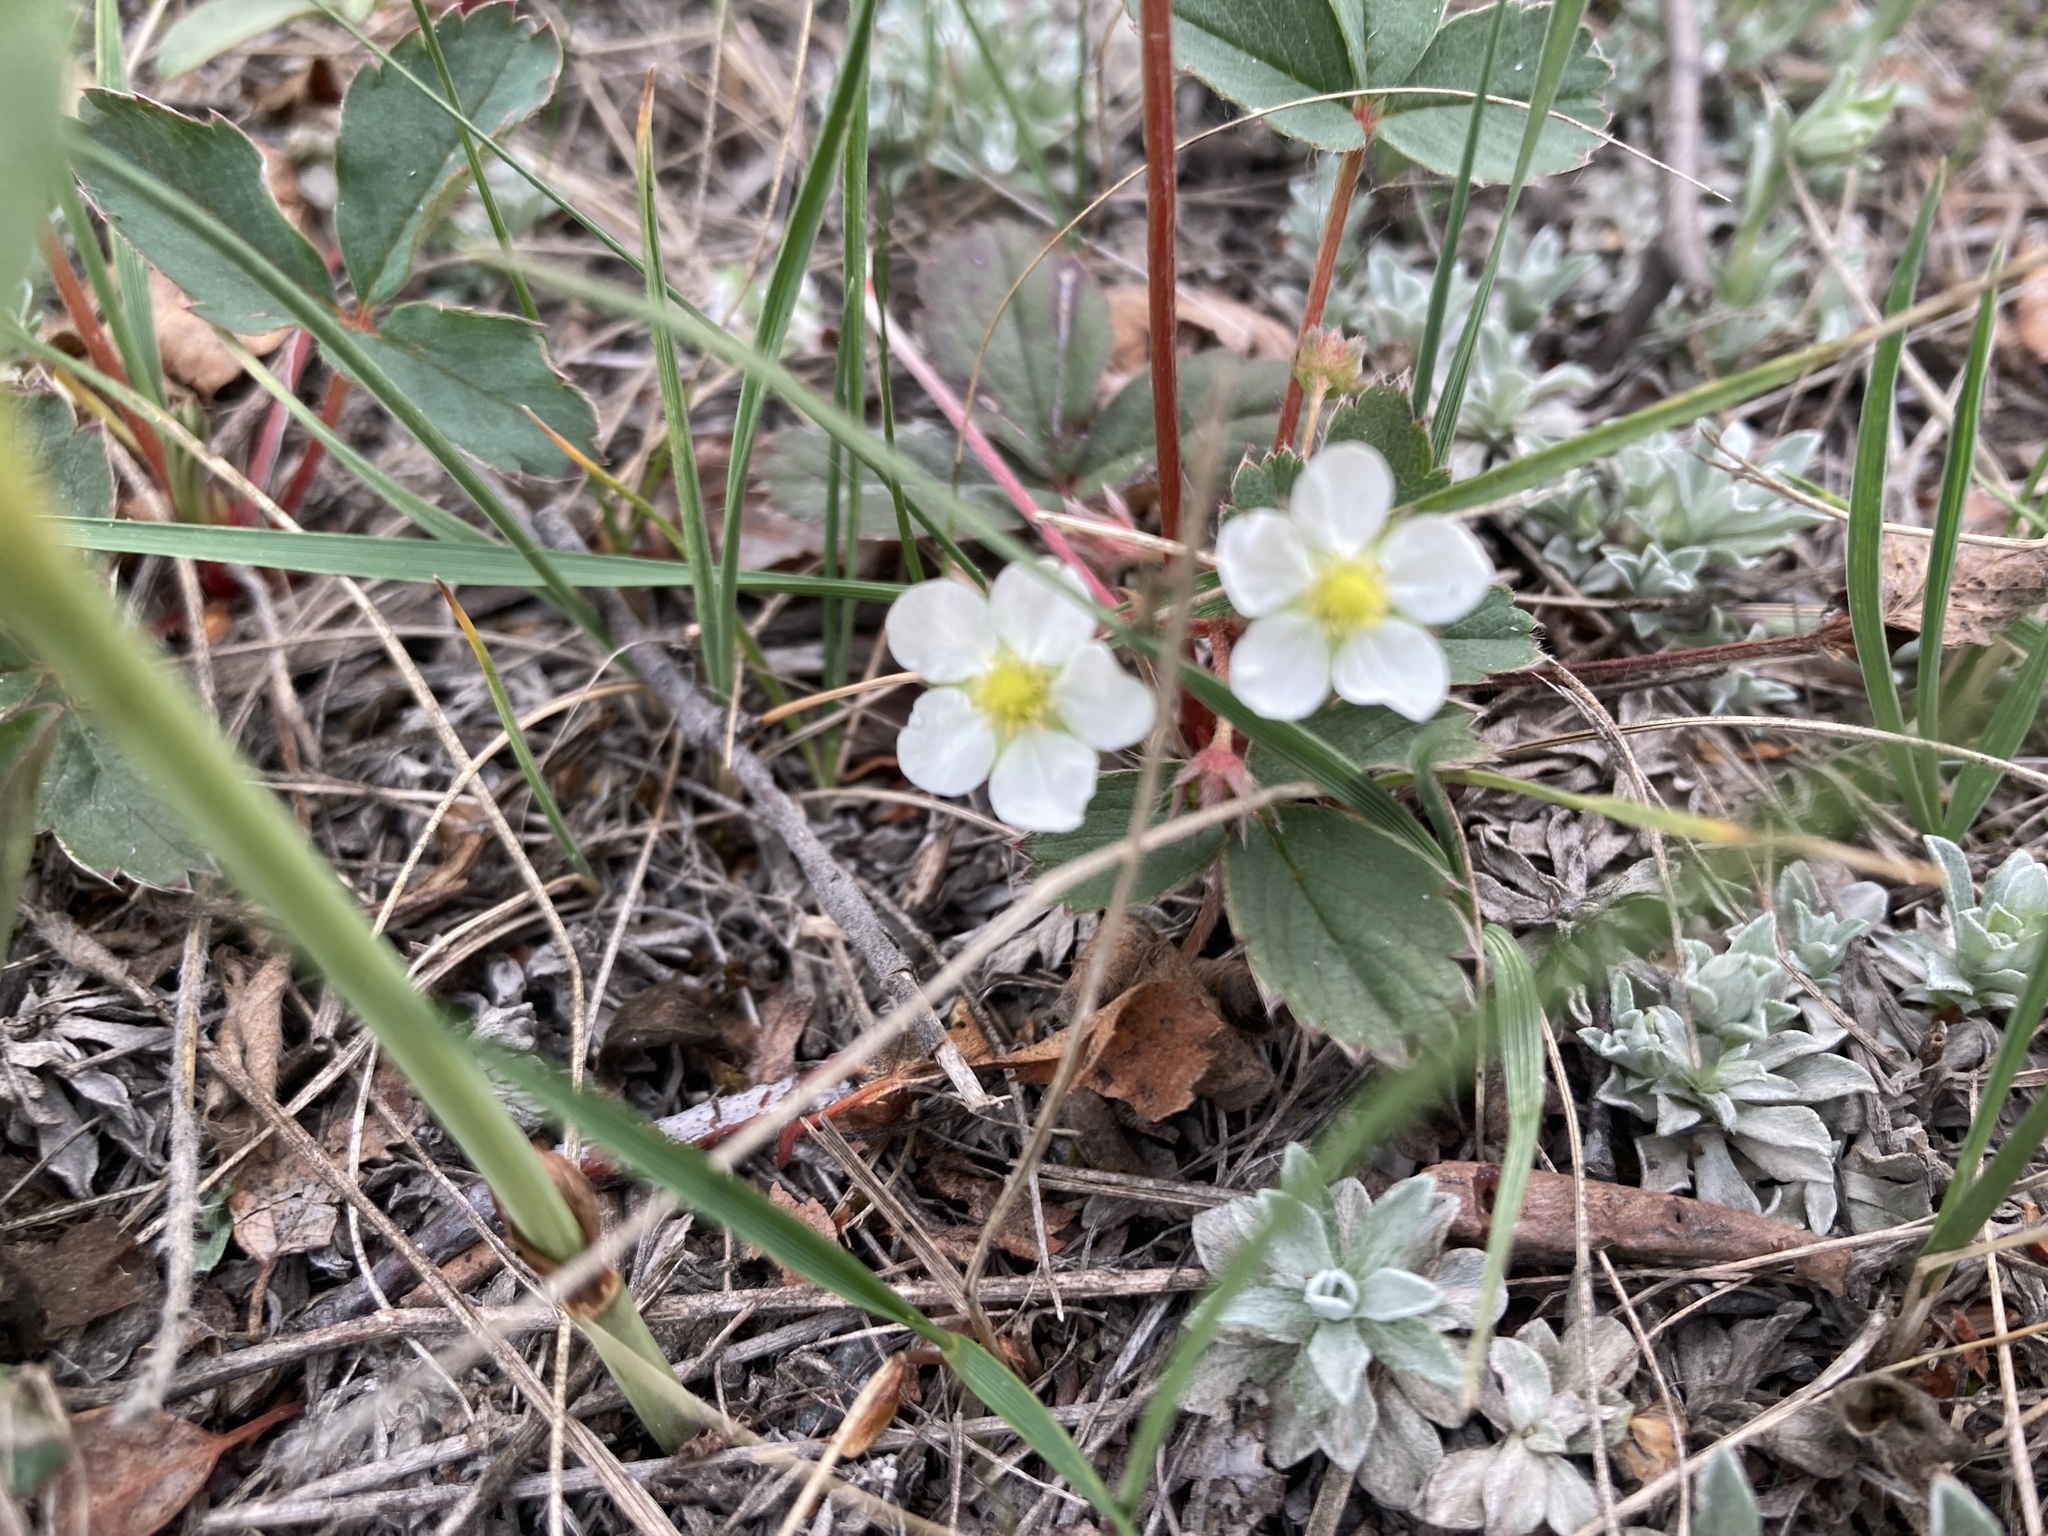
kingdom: Plantae
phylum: Tracheophyta
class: Magnoliopsida
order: Rosales
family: Rosaceae
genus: Fragaria
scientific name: Fragaria virginiana
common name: Thickleaved wild strawberry
